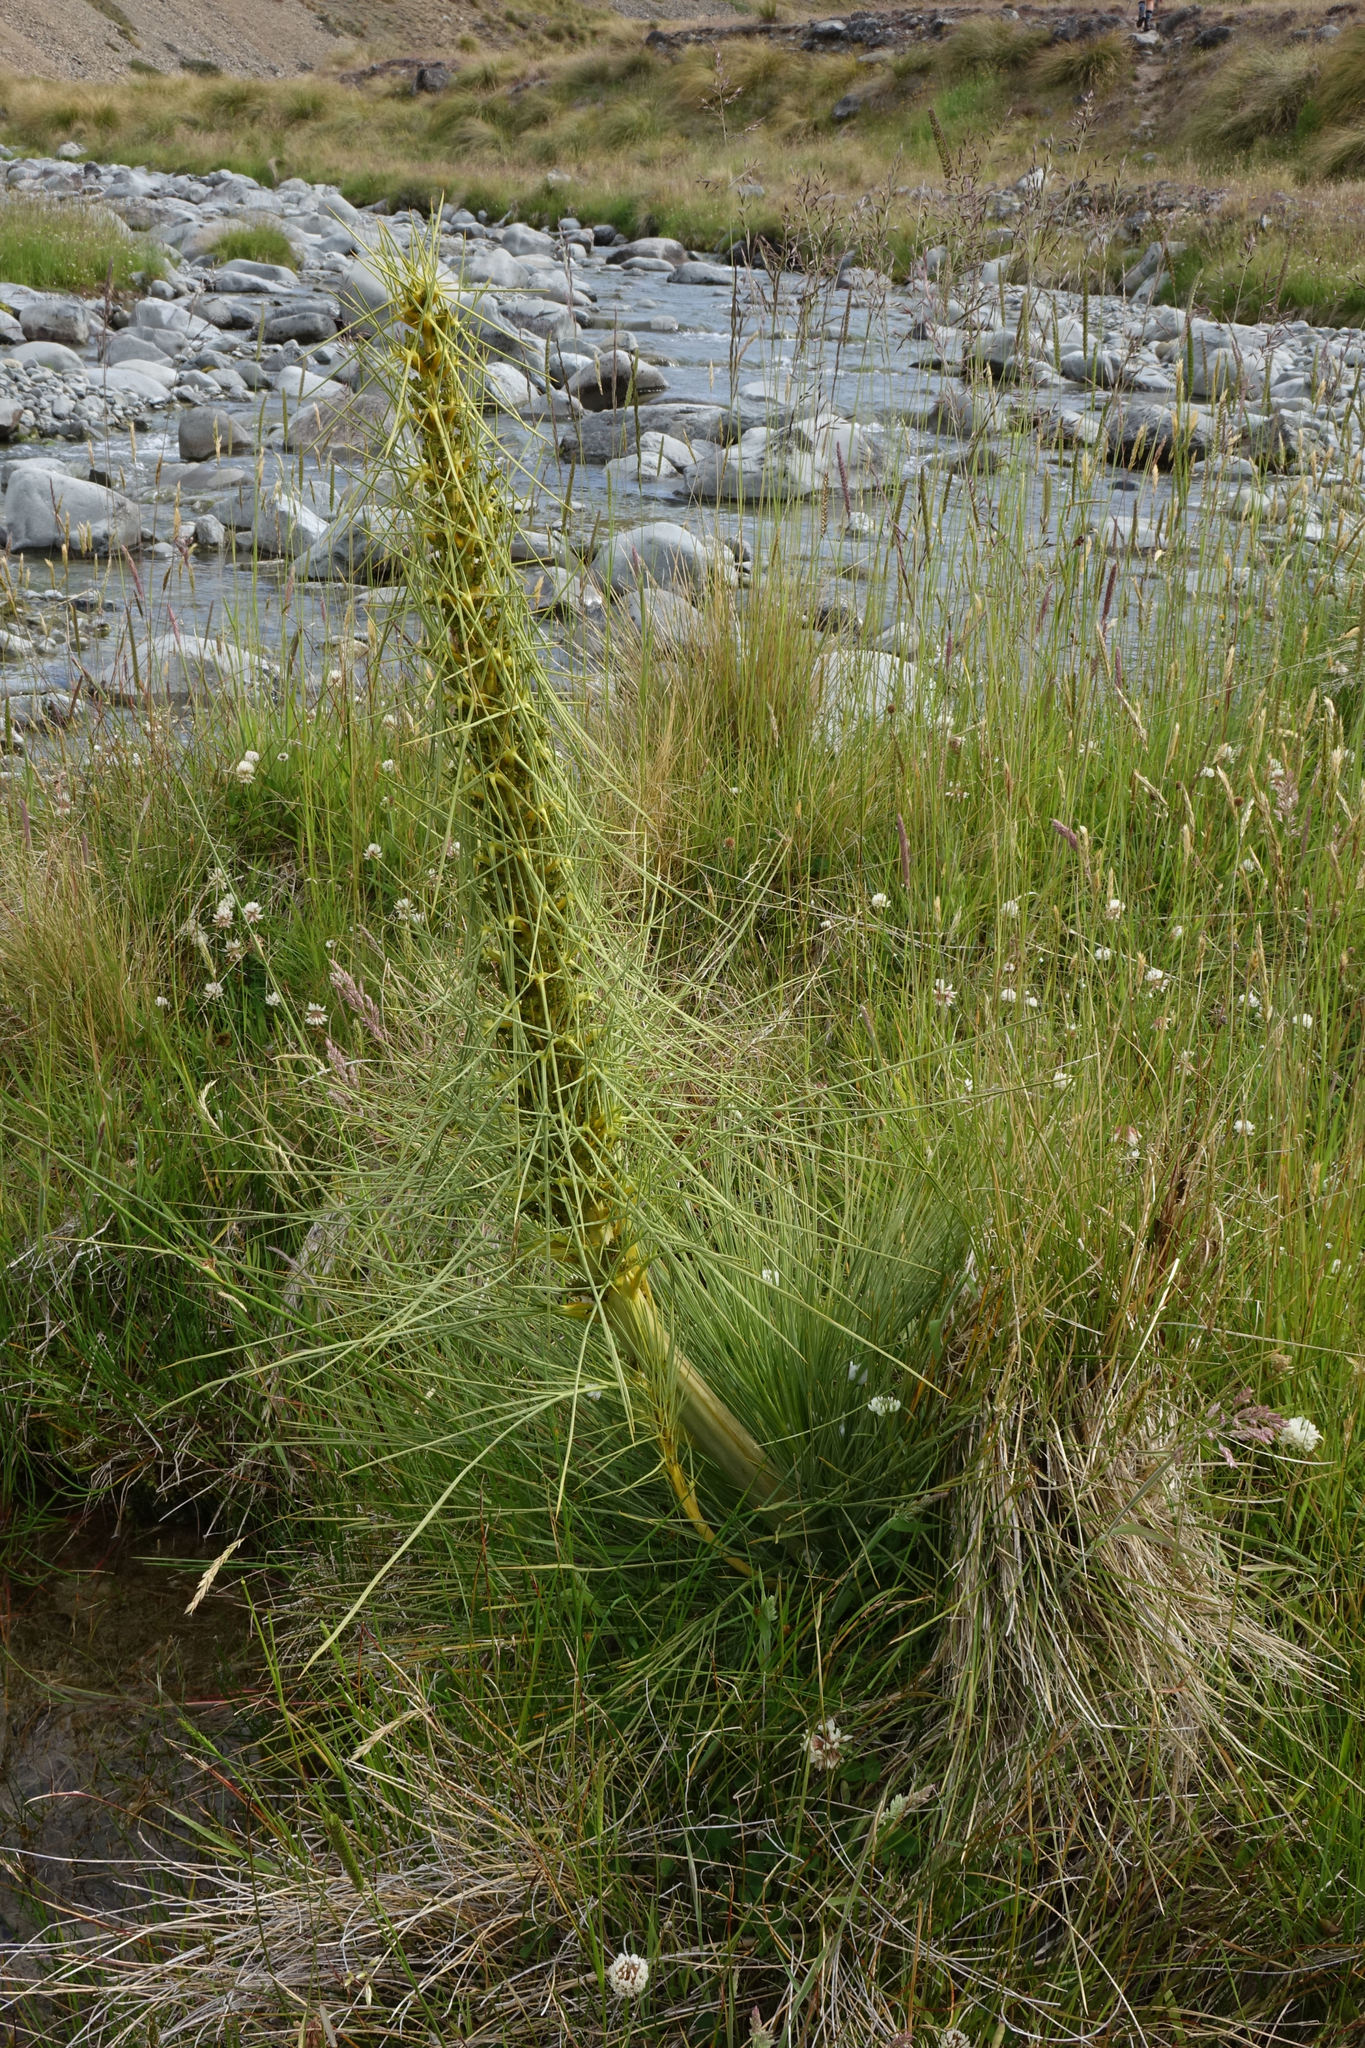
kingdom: Plantae
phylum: Tracheophyta
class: Magnoliopsida
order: Apiales
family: Apiaceae
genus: Aciphylla
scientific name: Aciphylla subflabellata
